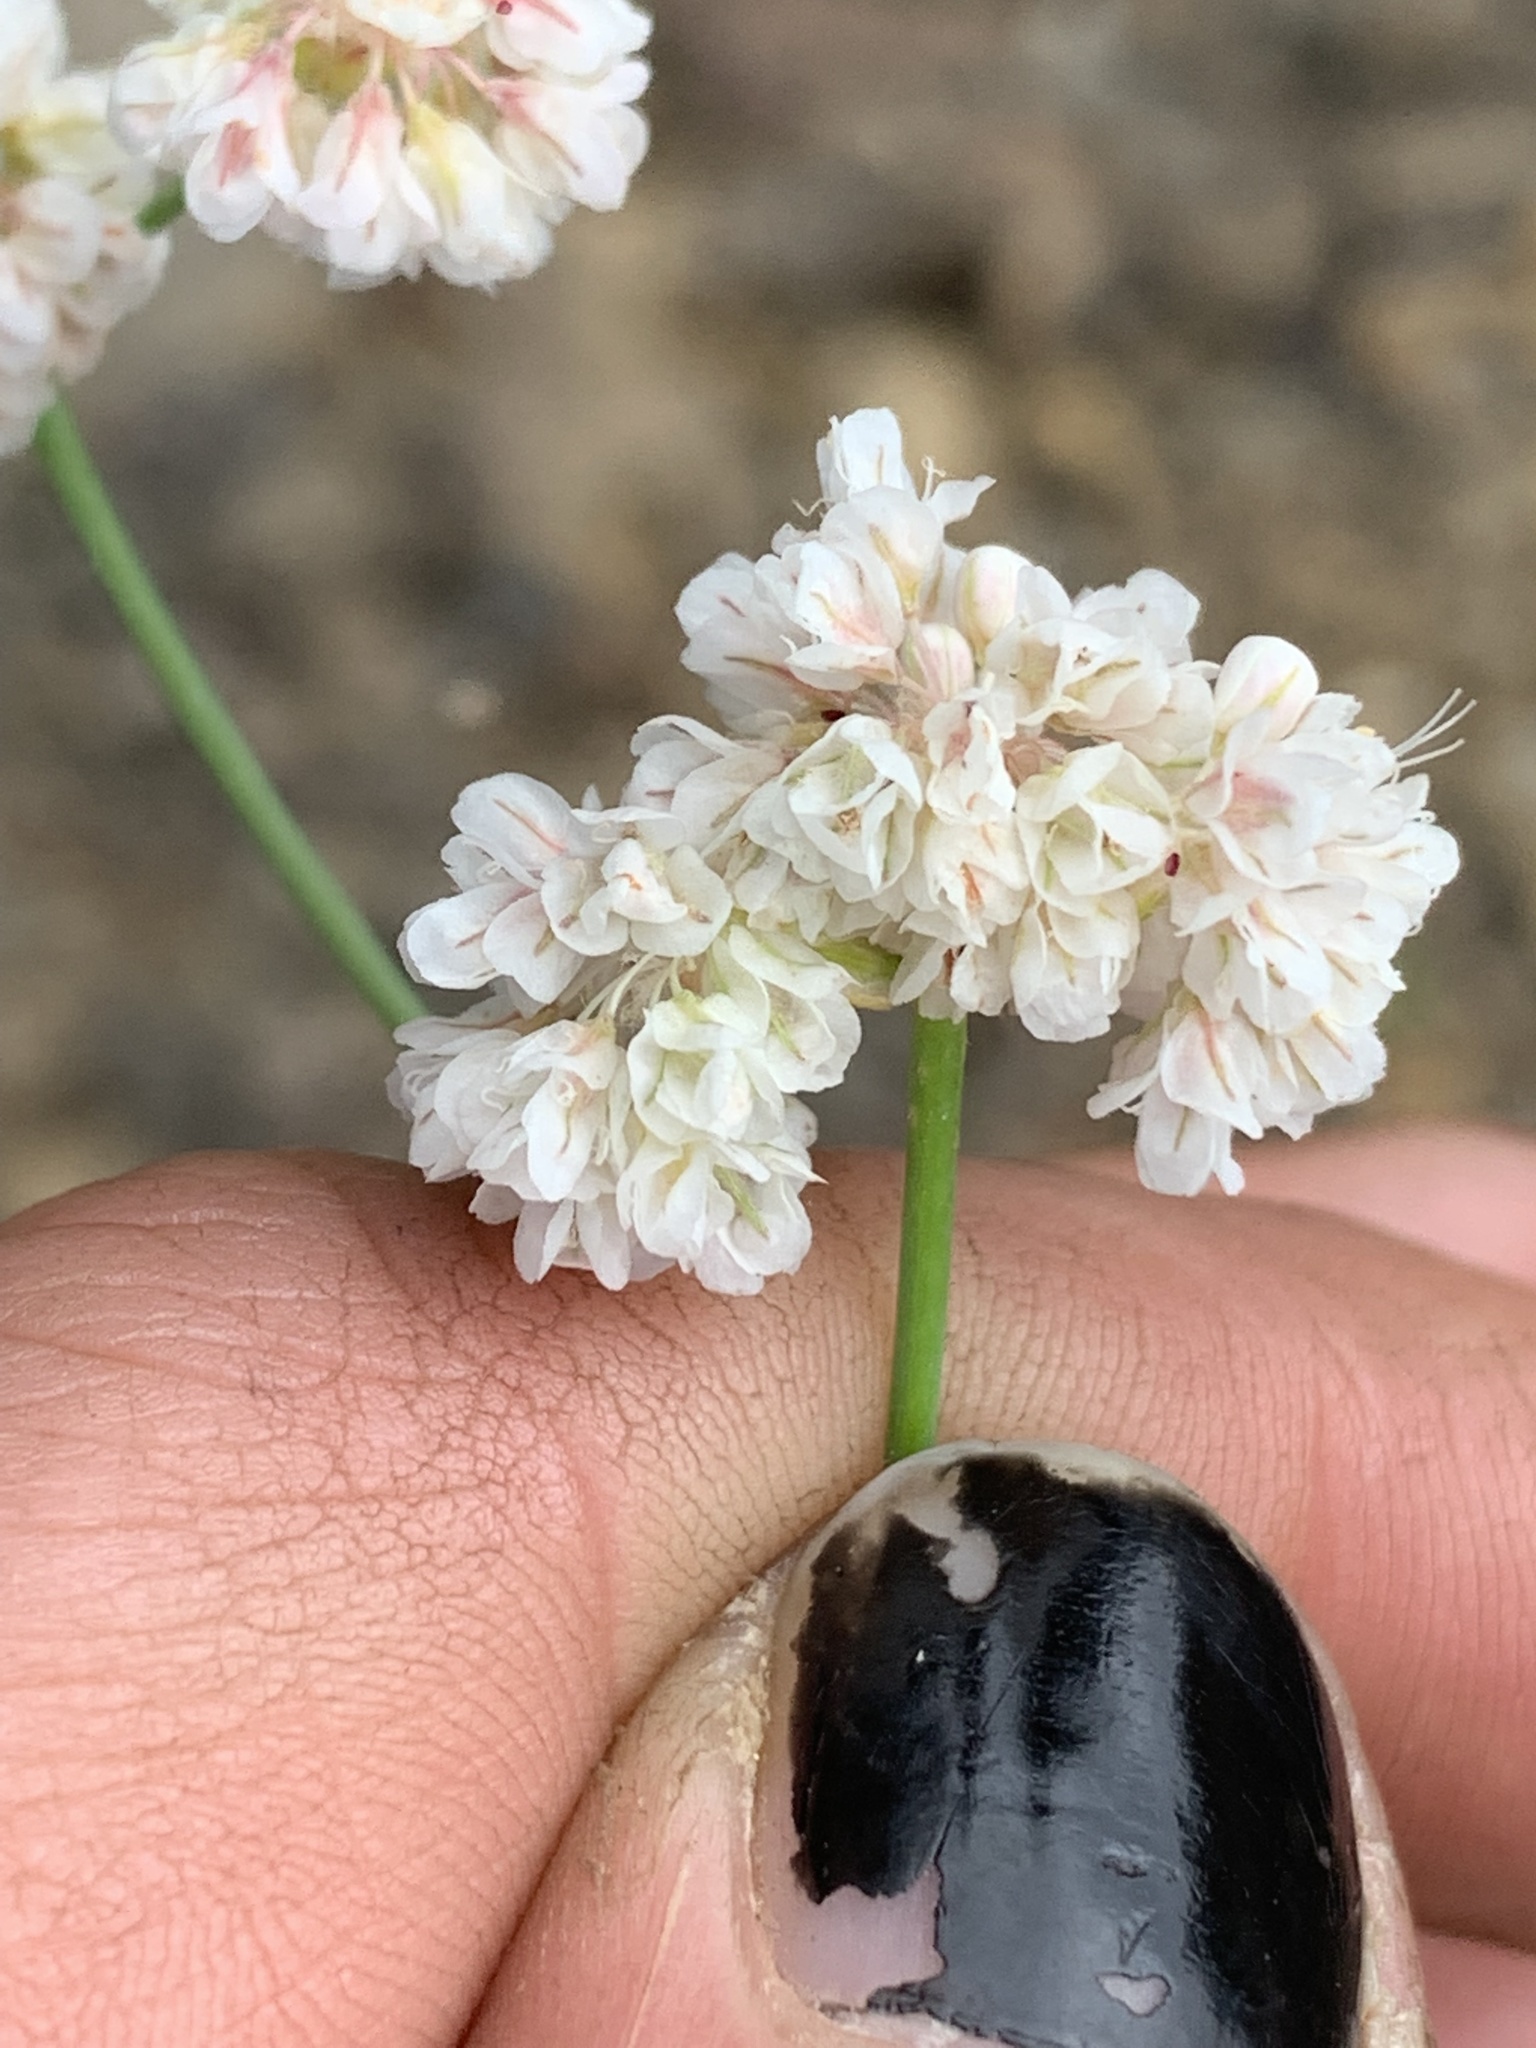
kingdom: Plantae
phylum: Tracheophyta
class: Magnoliopsida
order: Caryophyllales
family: Polygonaceae
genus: Eriogonum
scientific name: Eriogonum nudum
